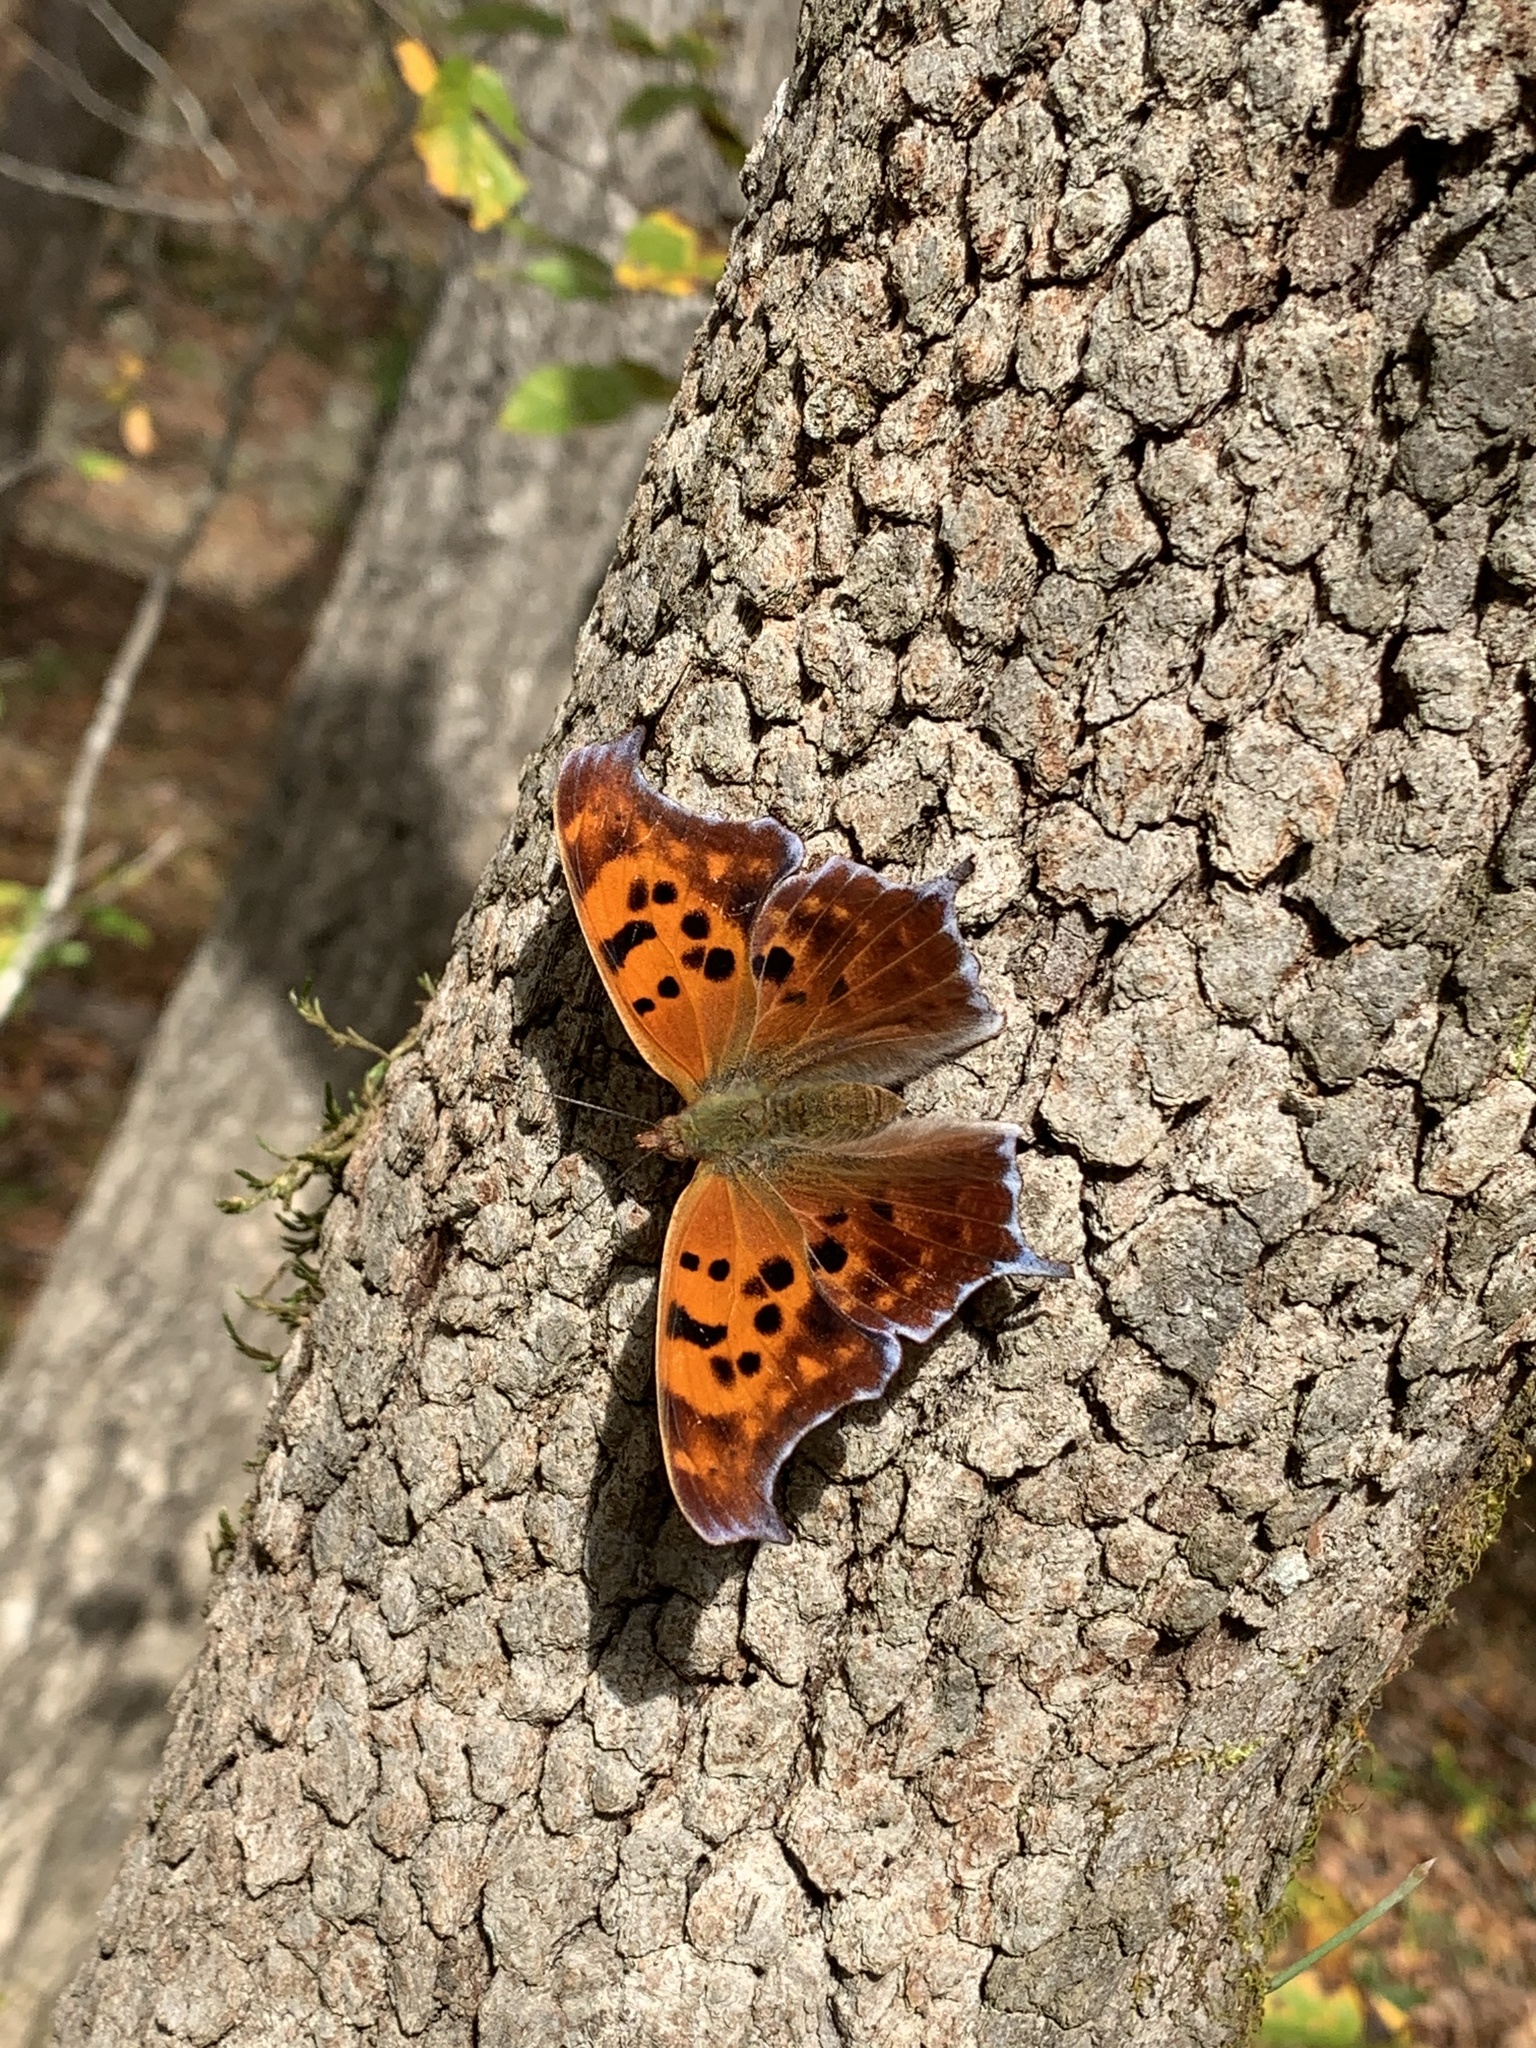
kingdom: Animalia
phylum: Arthropoda
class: Insecta
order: Lepidoptera
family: Nymphalidae
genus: Polygonia
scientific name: Polygonia interrogationis
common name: Question mark
